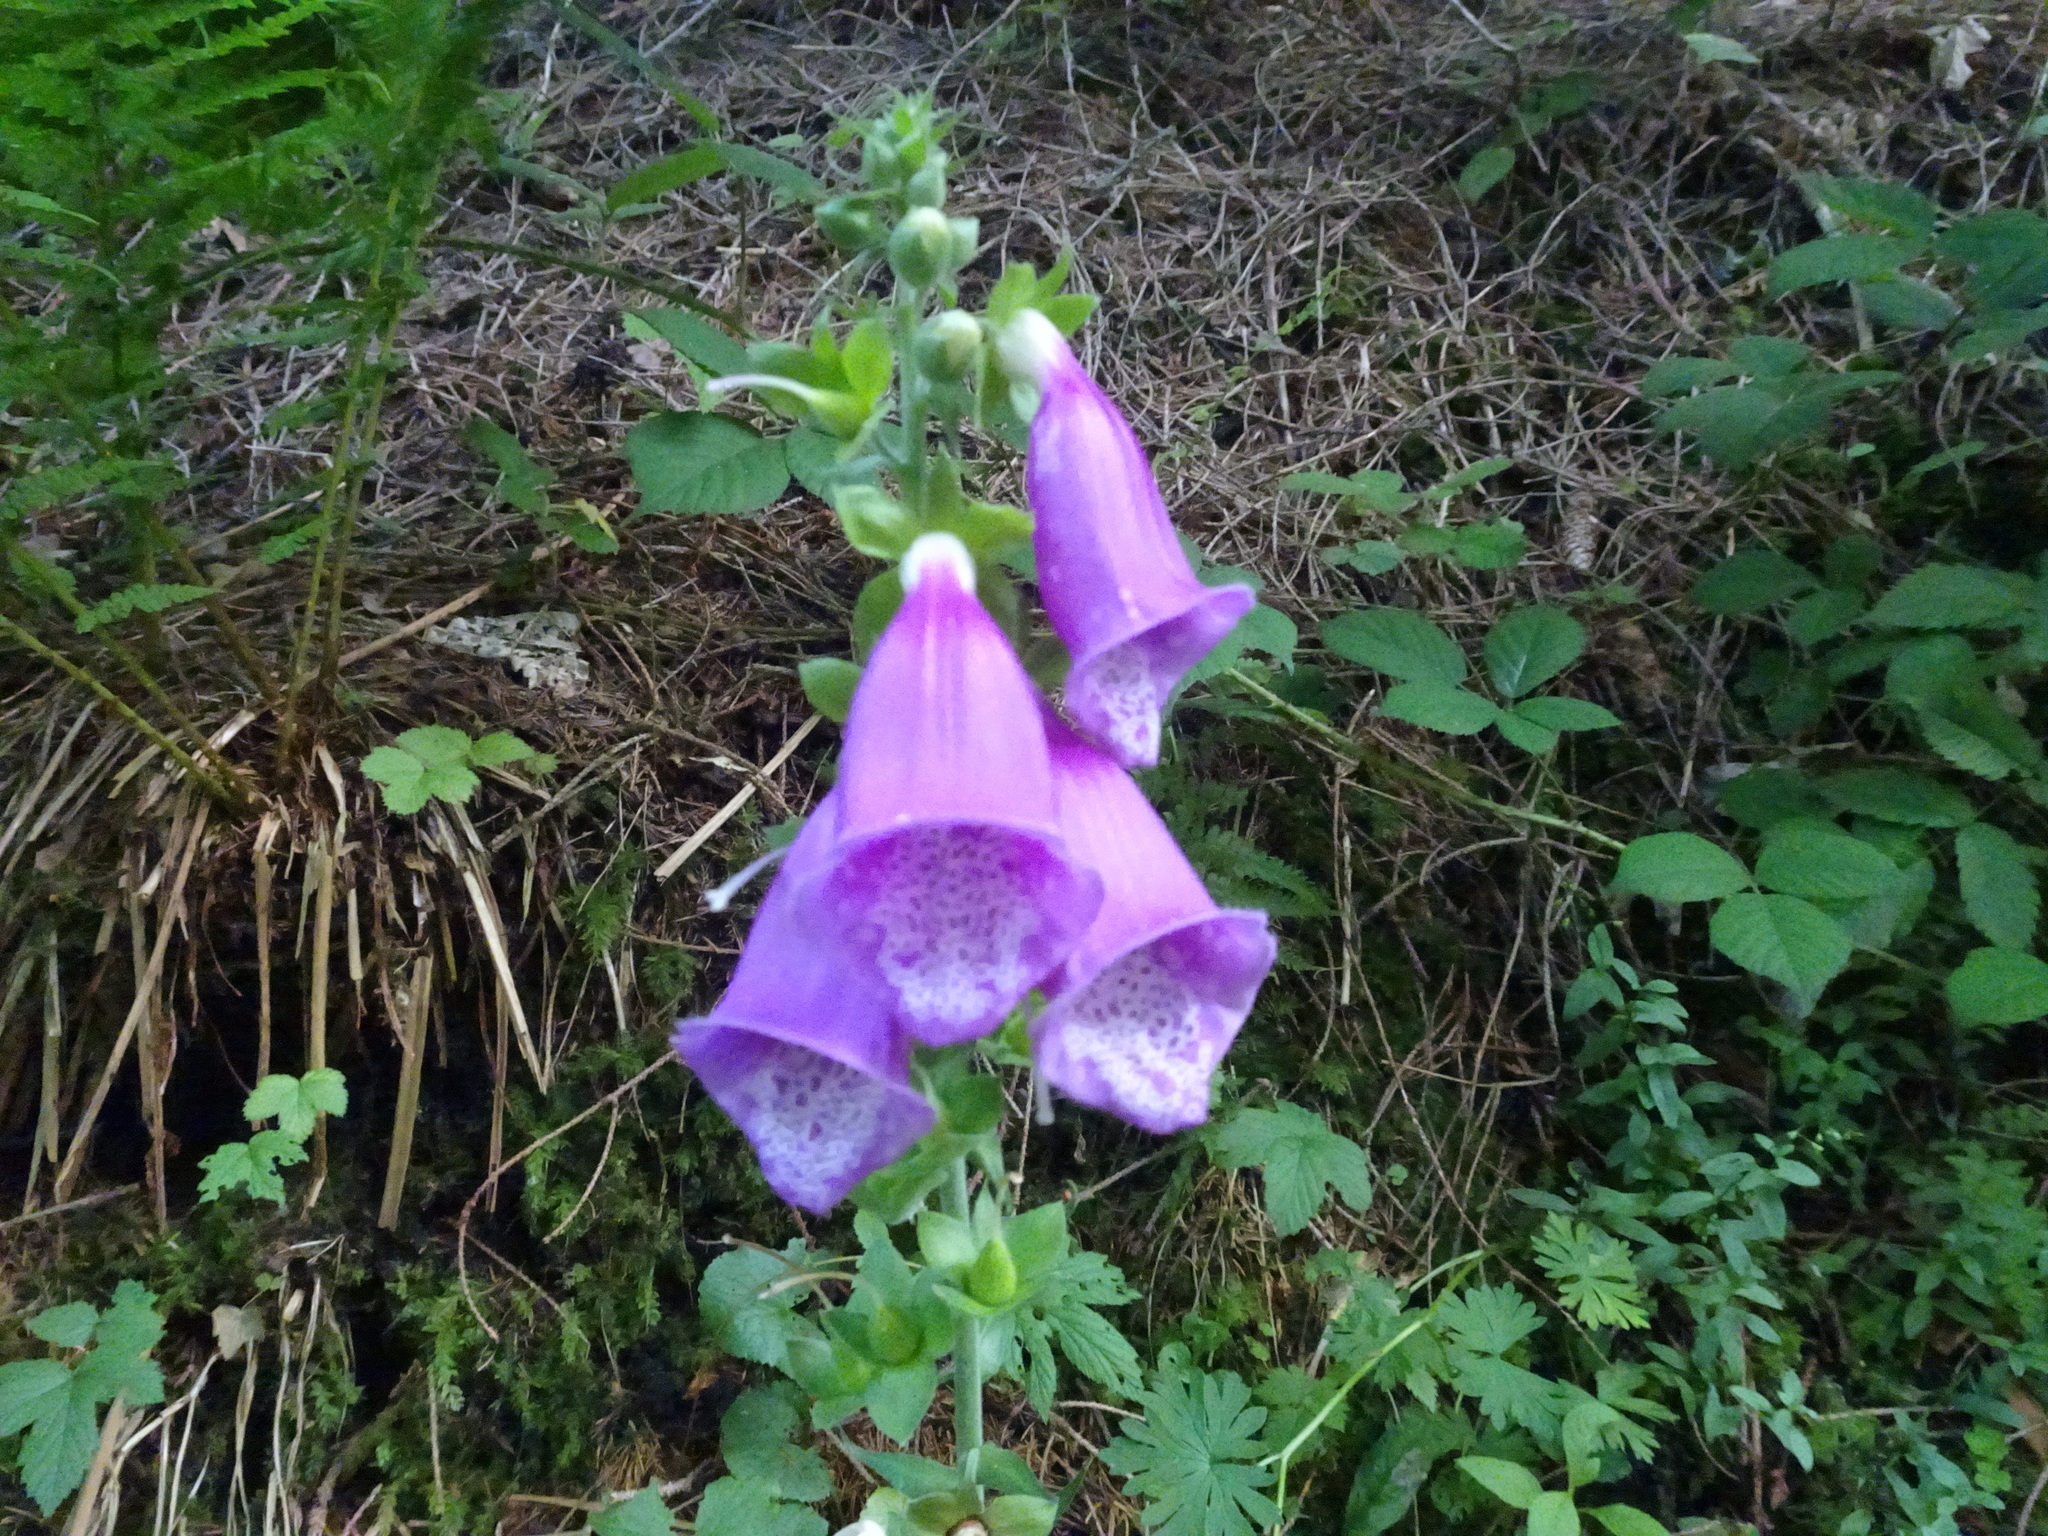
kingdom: Plantae
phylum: Tracheophyta
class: Magnoliopsida
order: Lamiales
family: Plantaginaceae
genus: Digitalis
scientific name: Digitalis purpurea
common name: Foxglove
